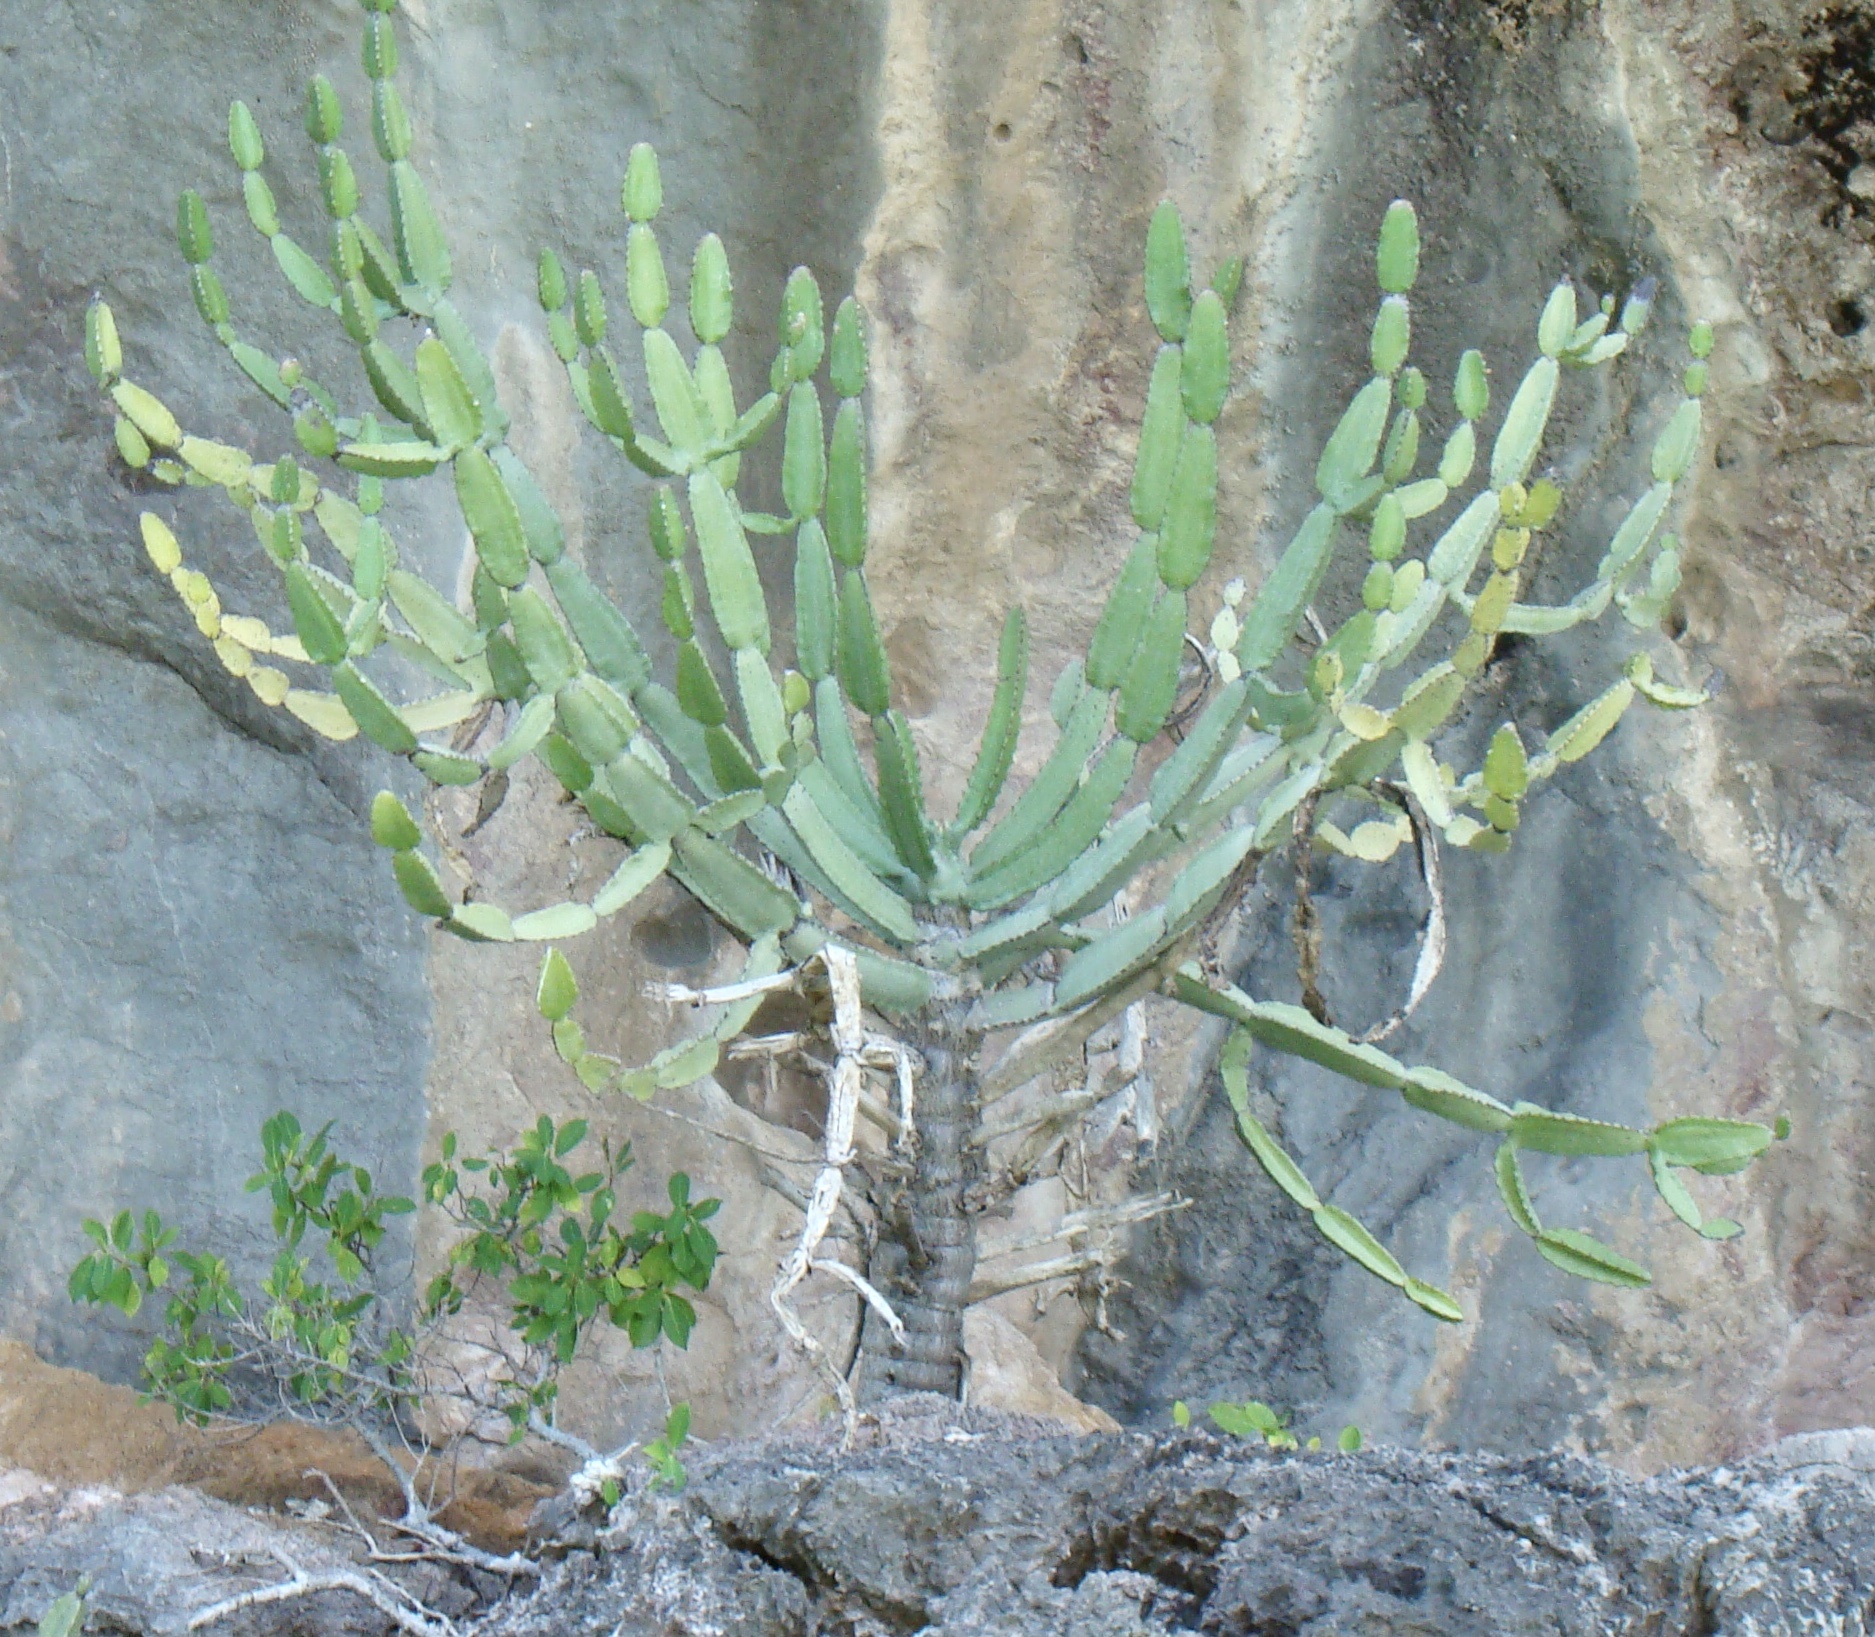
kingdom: Plantae
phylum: Tracheophyta
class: Magnoliopsida
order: Malpighiales
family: Euphorbiaceae
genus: Euphorbia
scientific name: Euphorbia antiquorum
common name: Malayan spurge tree
